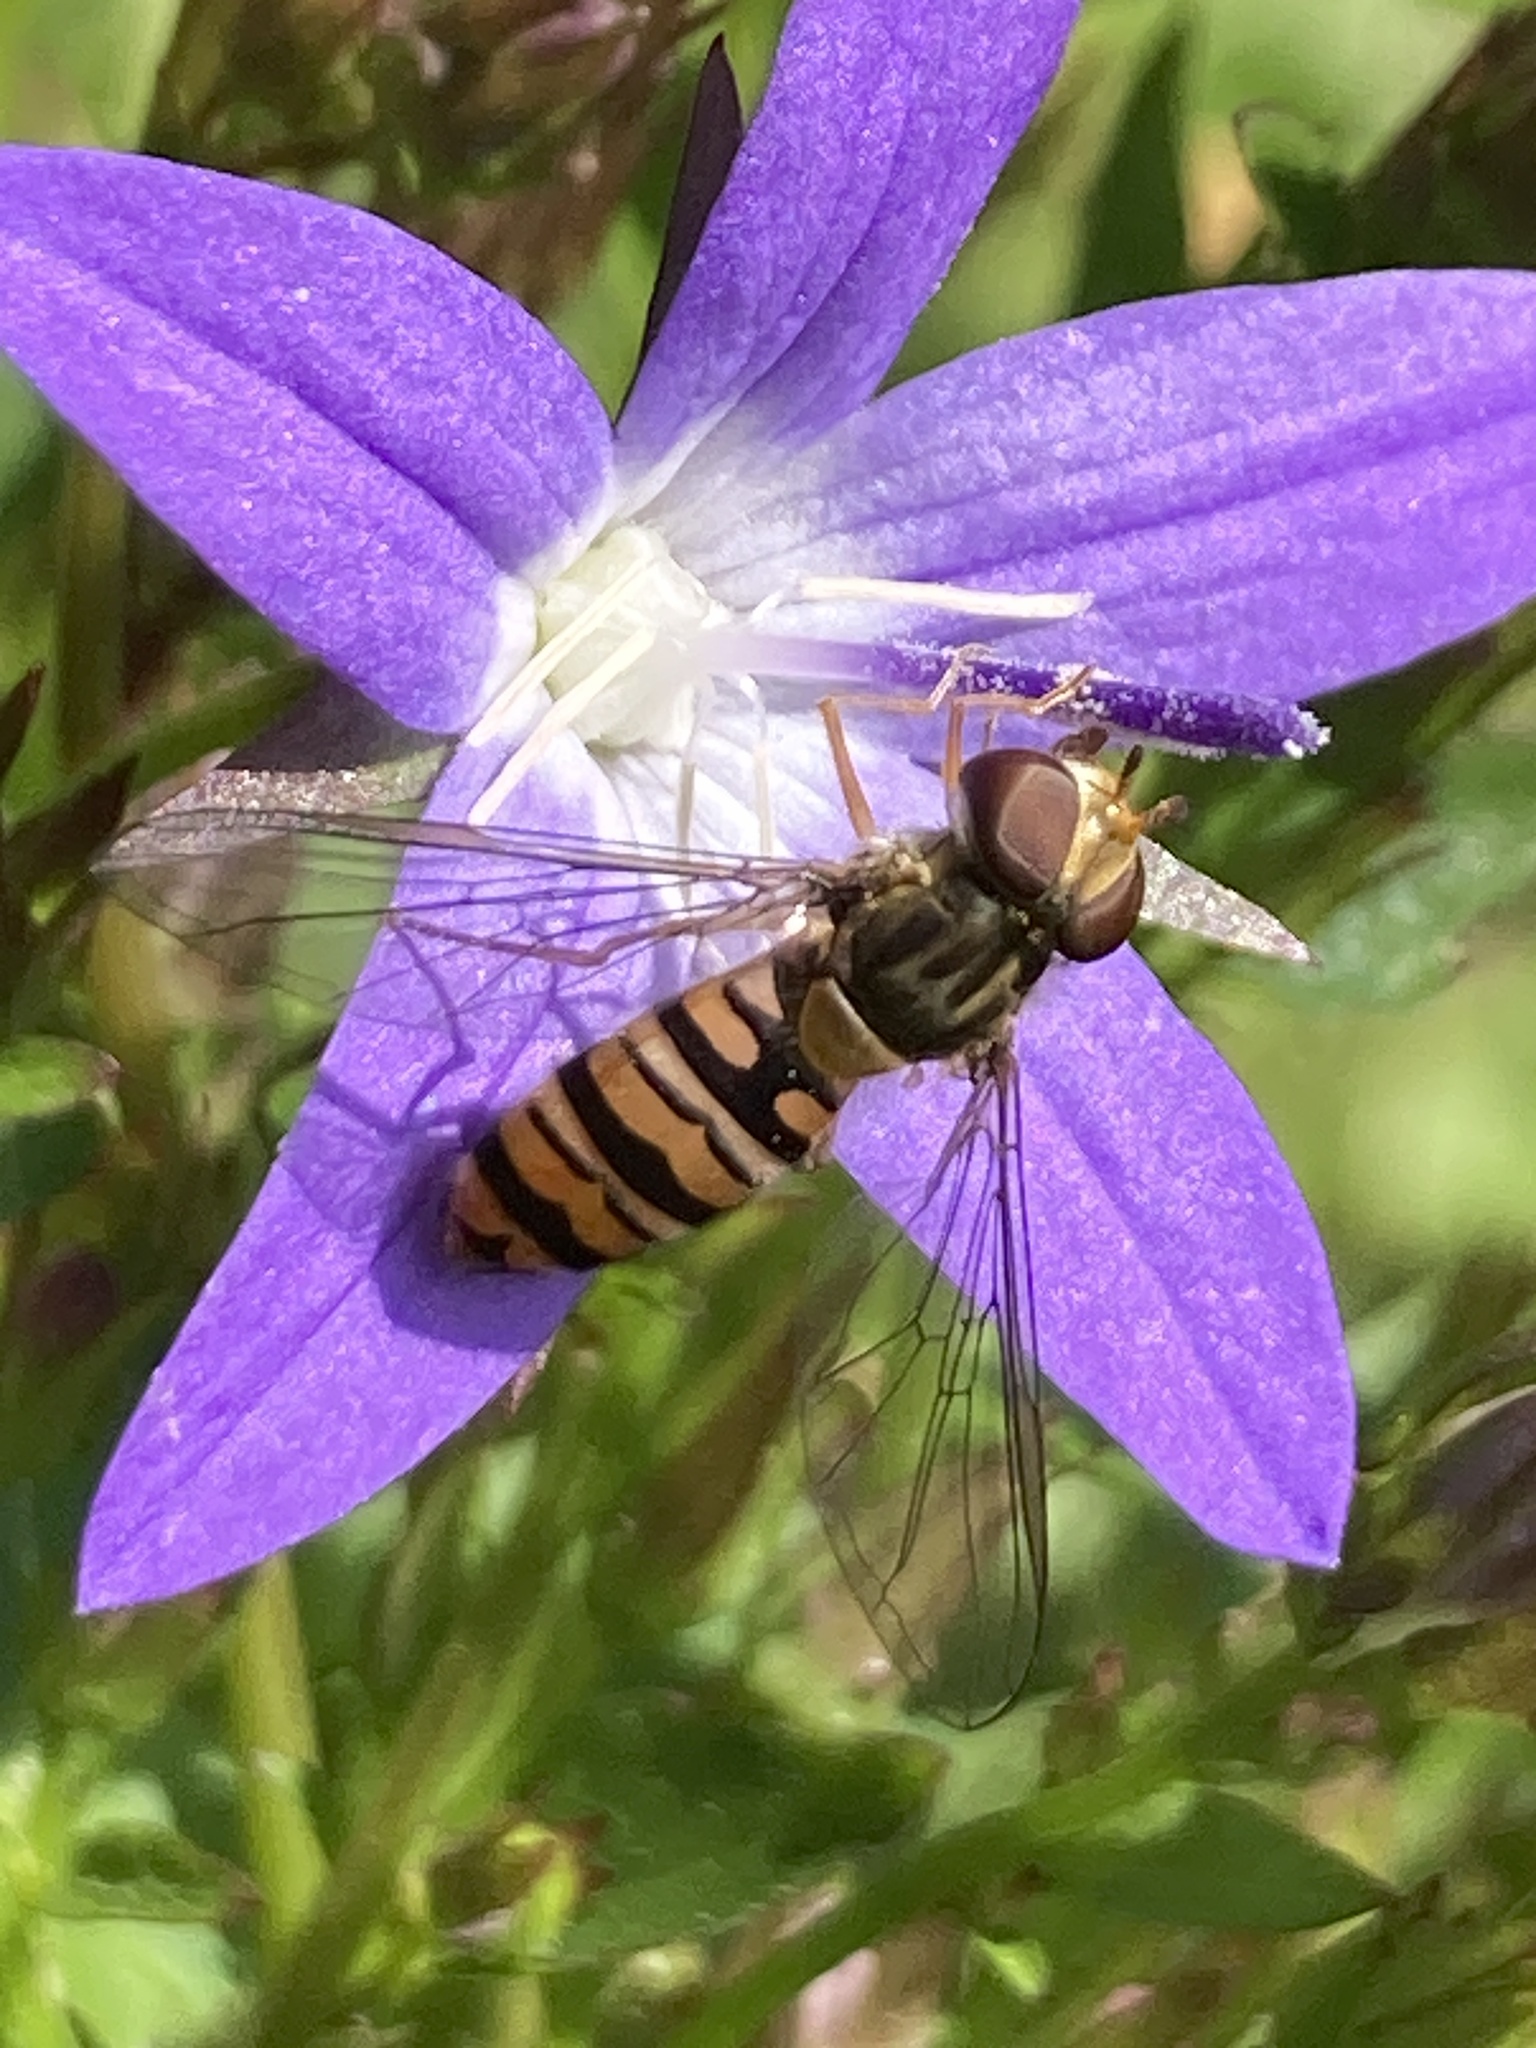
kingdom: Animalia
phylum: Arthropoda
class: Insecta
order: Diptera
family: Syrphidae
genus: Episyrphus
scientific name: Episyrphus balteatus
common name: Marmalade hoverfly
